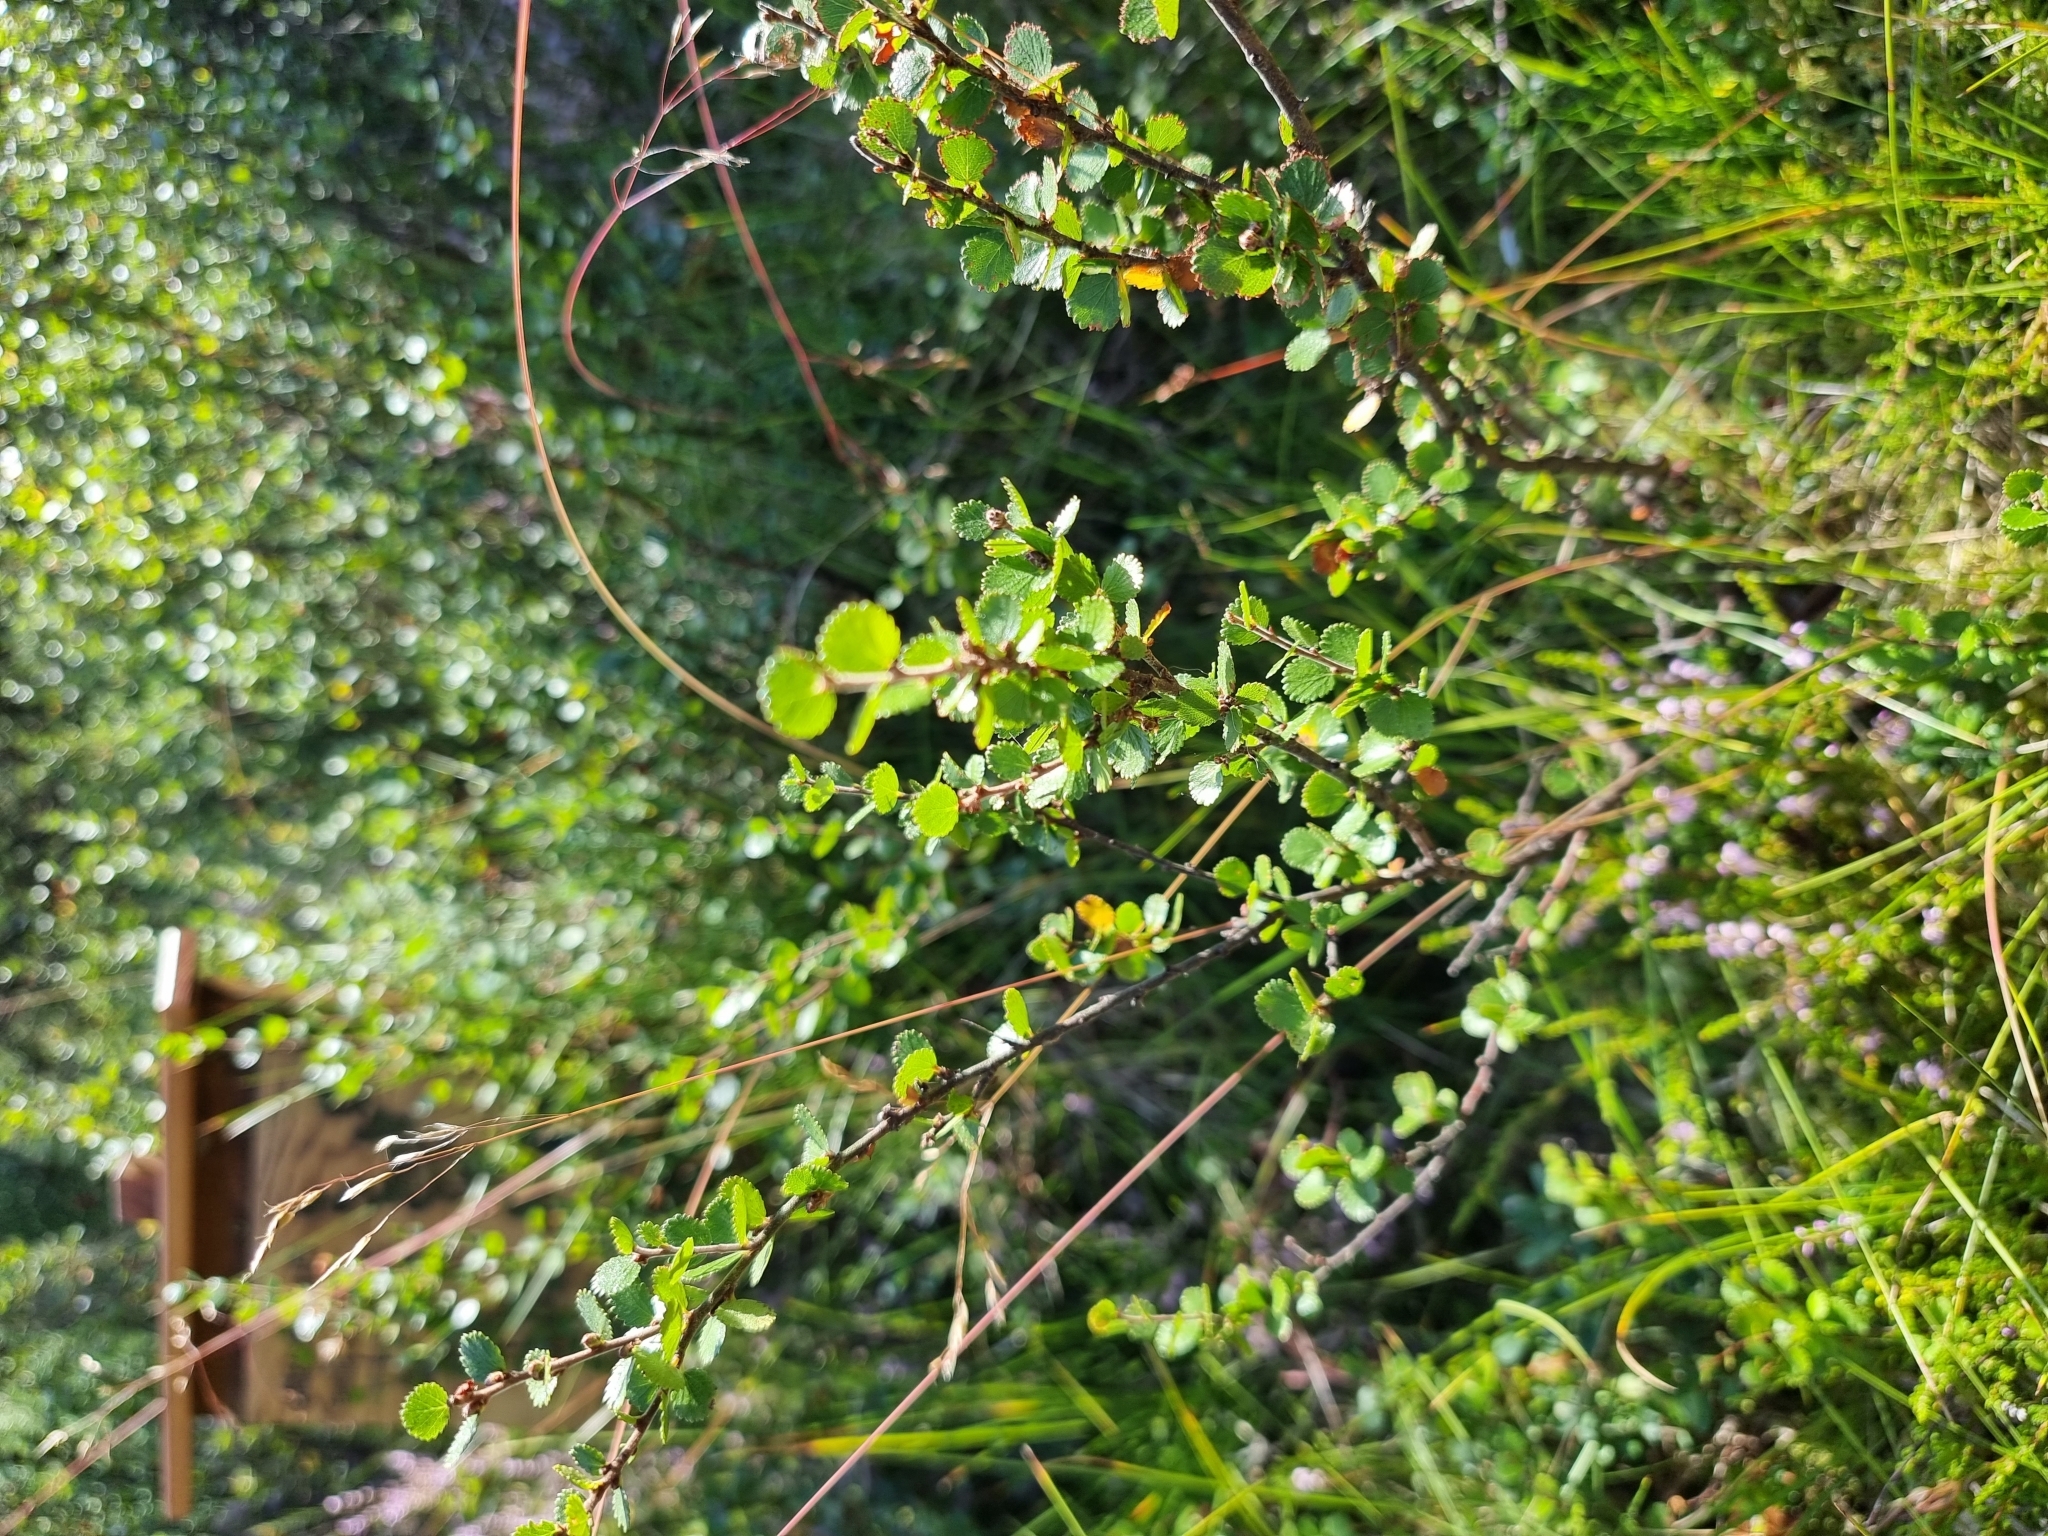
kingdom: Plantae
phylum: Tracheophyta
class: Magnoliopsida
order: Fagales
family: Betulaceae
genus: Betula
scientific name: Betula nana
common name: Arctic dwarf birch
